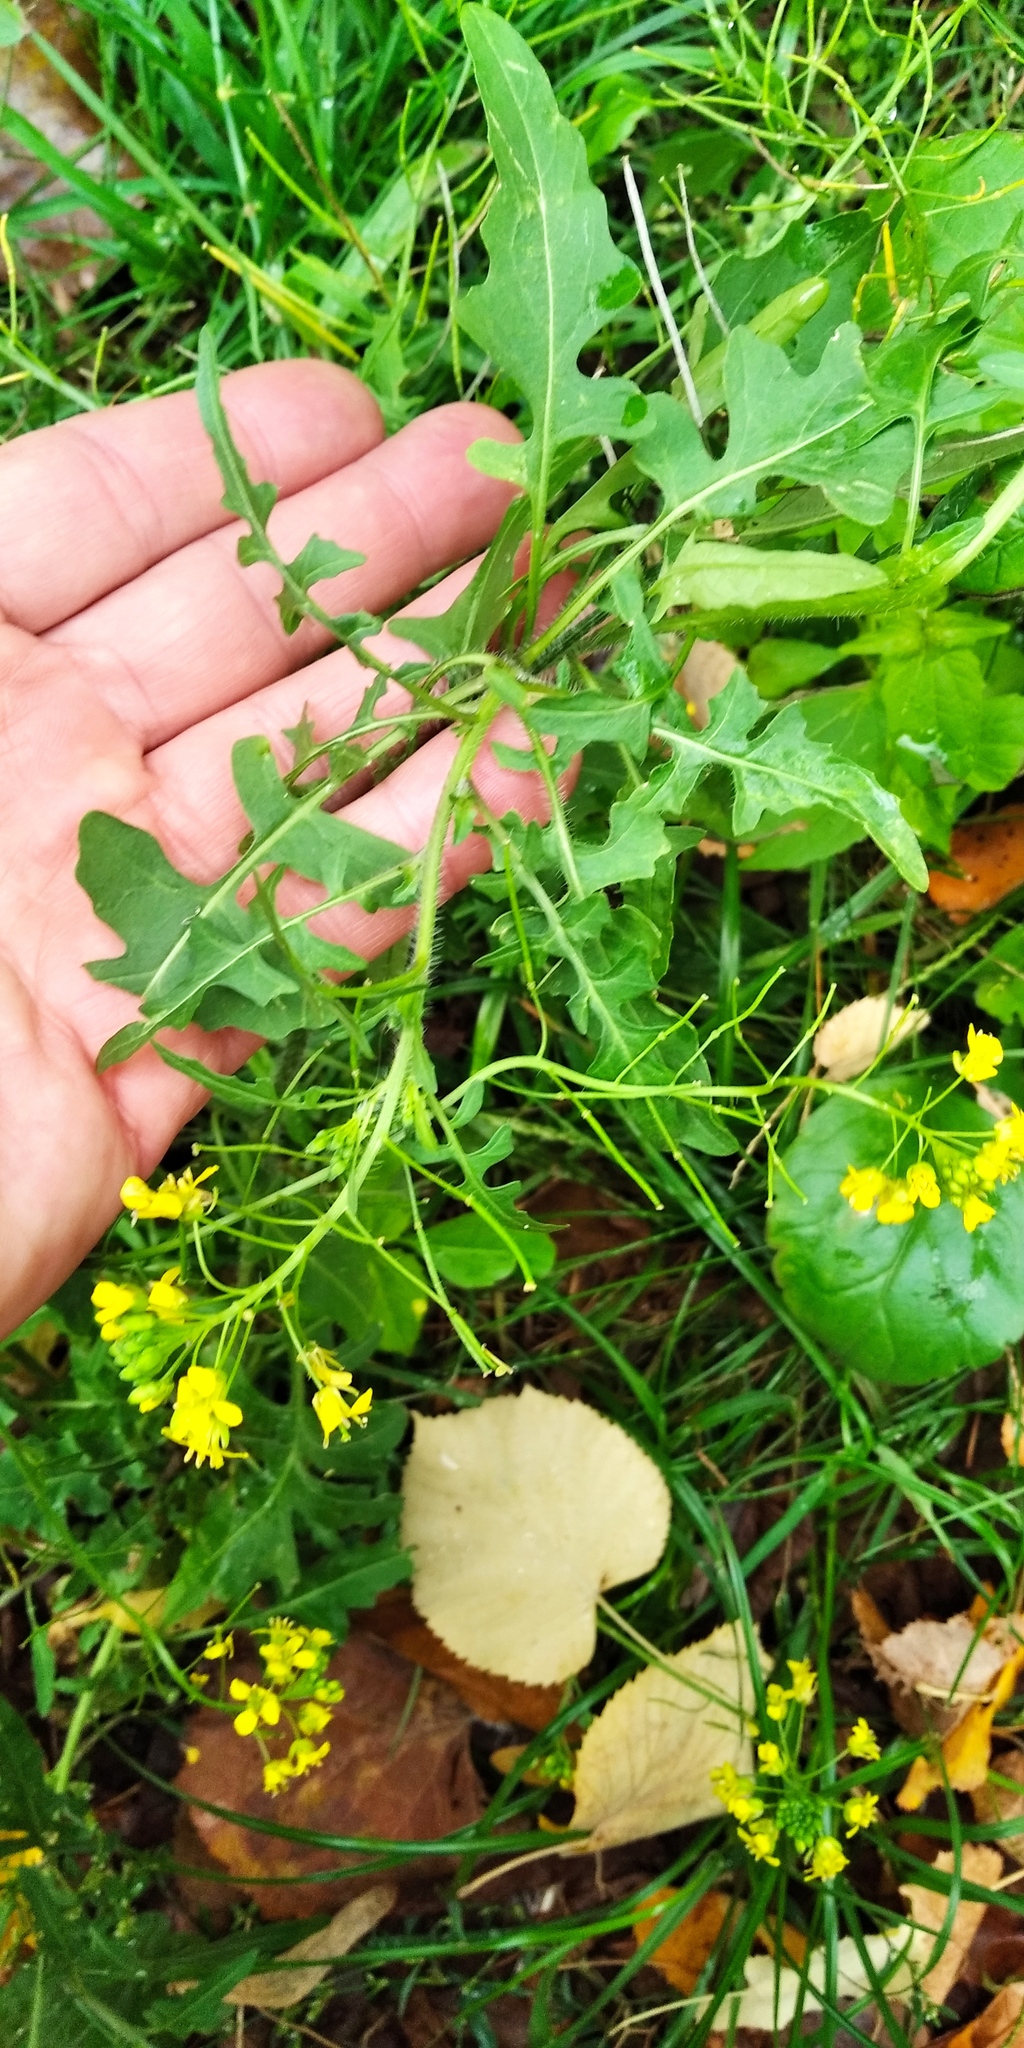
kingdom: Plantae
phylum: Tracheophyta
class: Magnoliopsida
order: Brassicales
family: Brassicaceae
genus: Sisymbrium
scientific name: Sisymbrium loeselii
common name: False london-rocket
